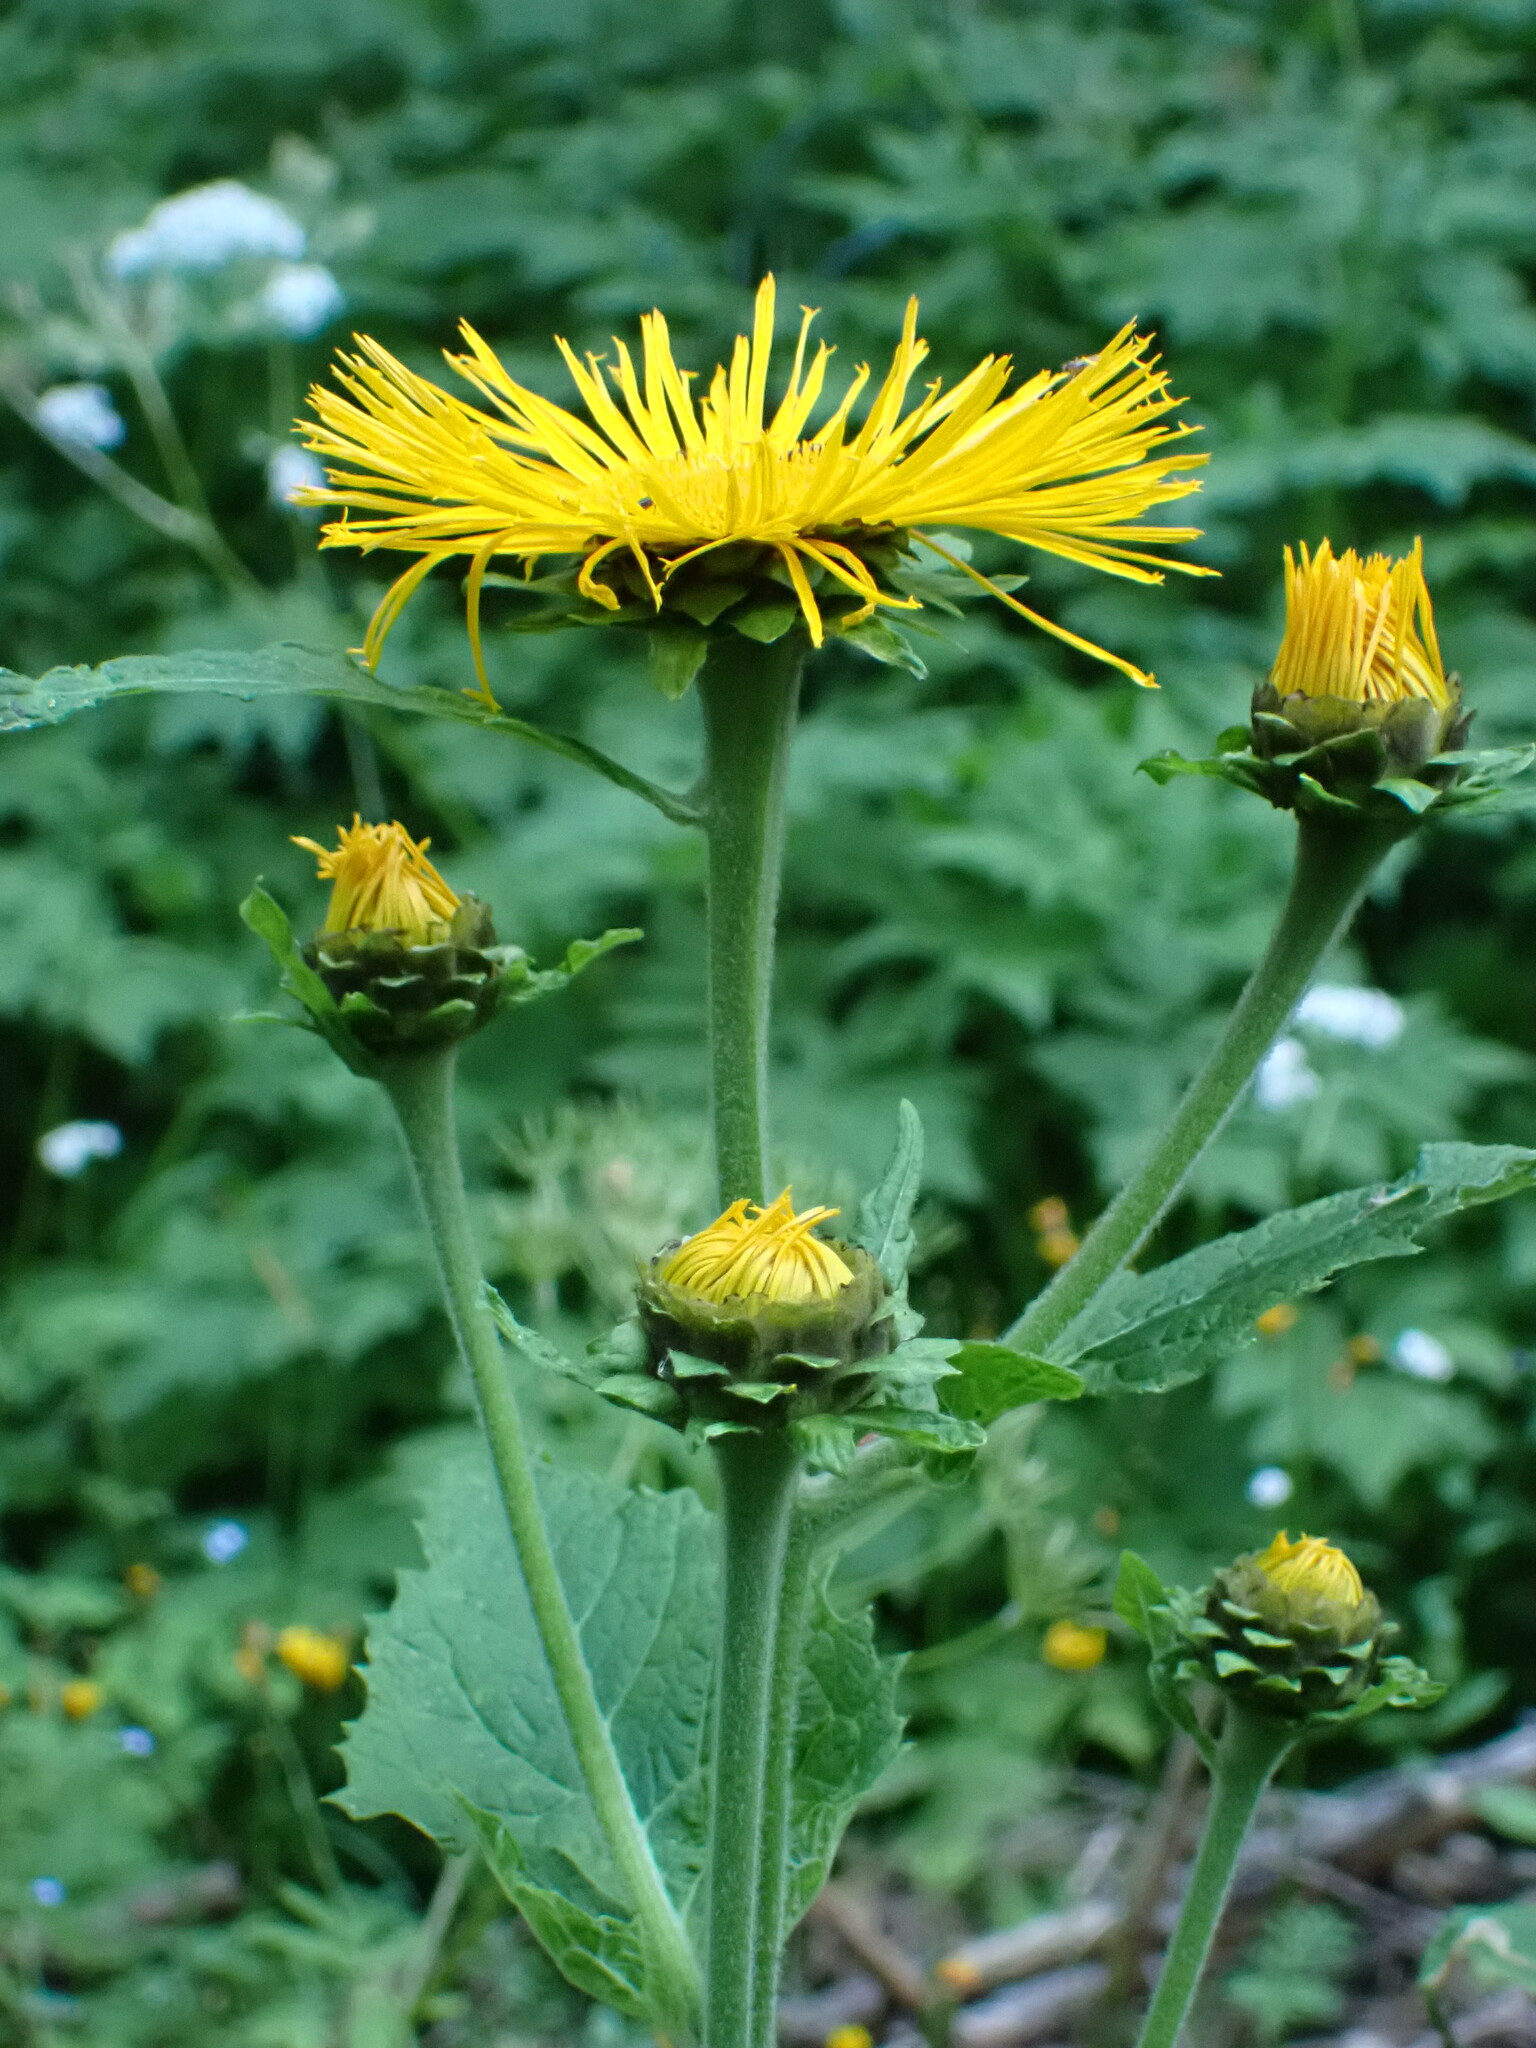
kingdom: Plantae
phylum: Tracheophyta
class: Magnoliopsida
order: Asterales
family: Asteraceae
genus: Telekia
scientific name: Telekia speciosa
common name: Yellow oxeye
